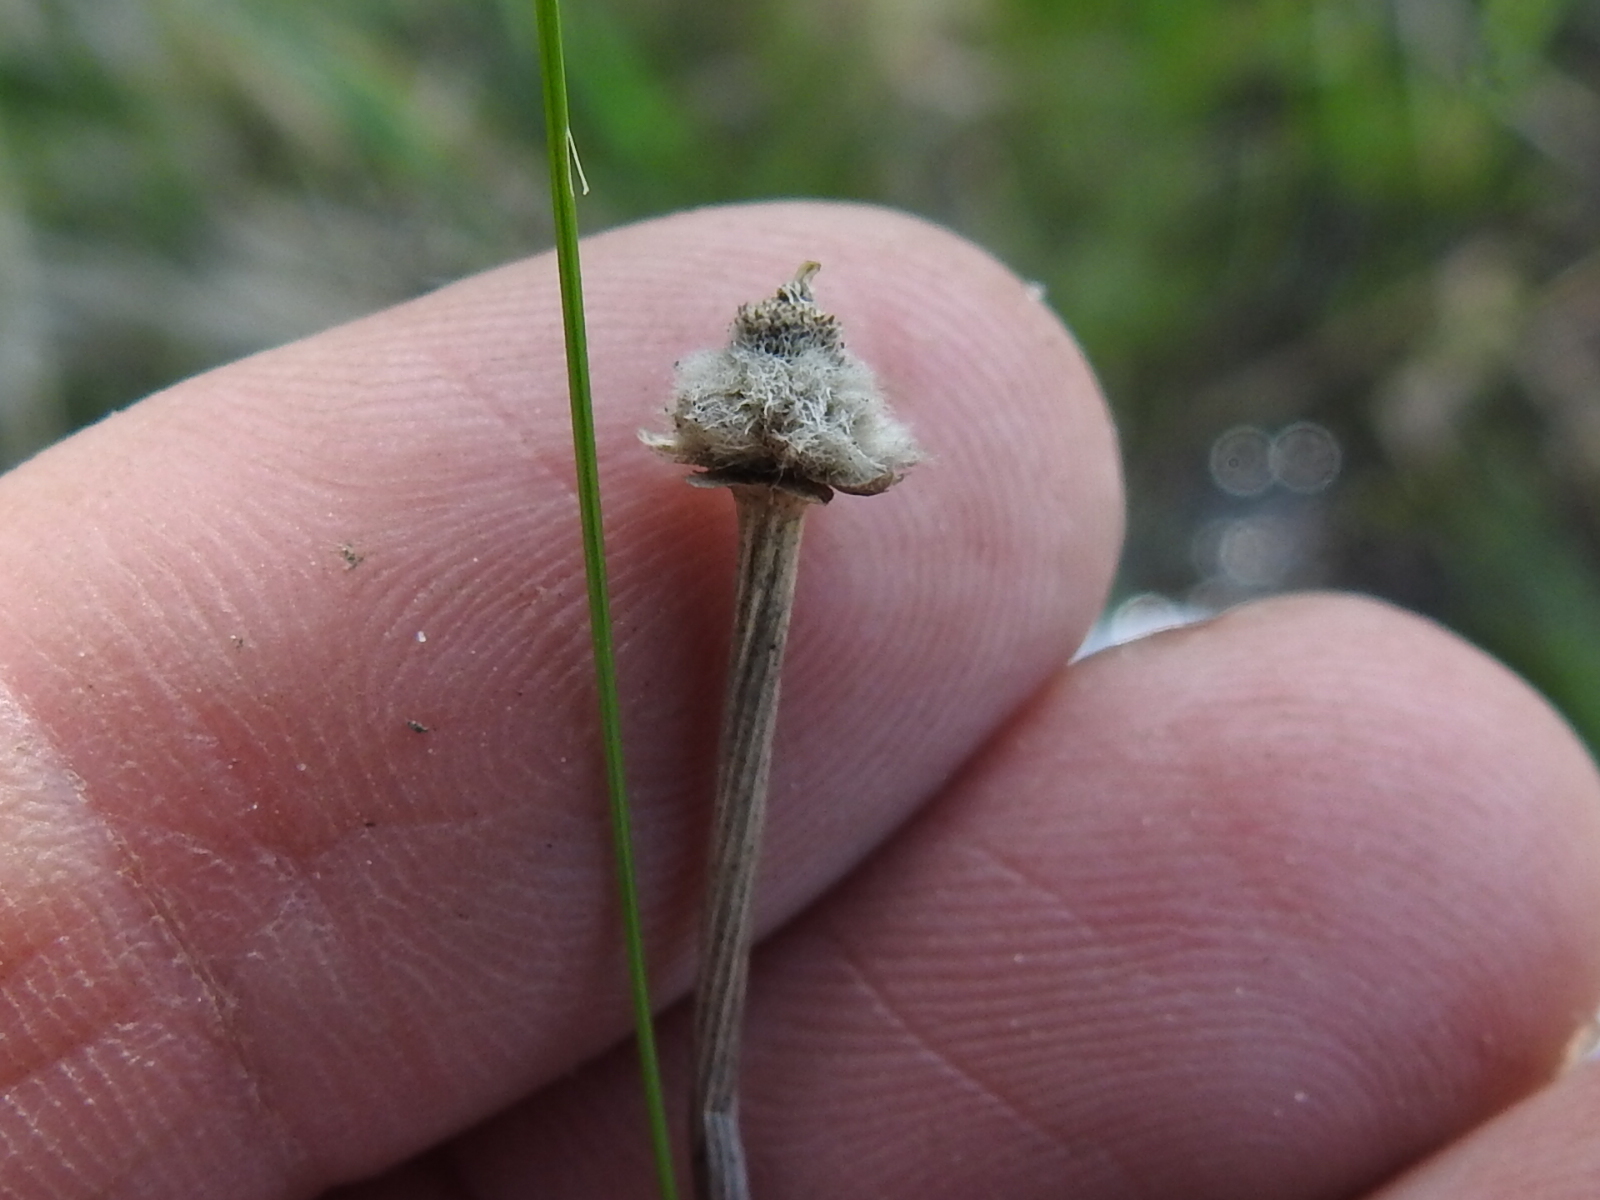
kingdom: Plantae
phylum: Tracheophyta
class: Liliopsida
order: Poales
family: Eriocaulaceae
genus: Eriocaulon
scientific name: Eriocaulon decangulare
